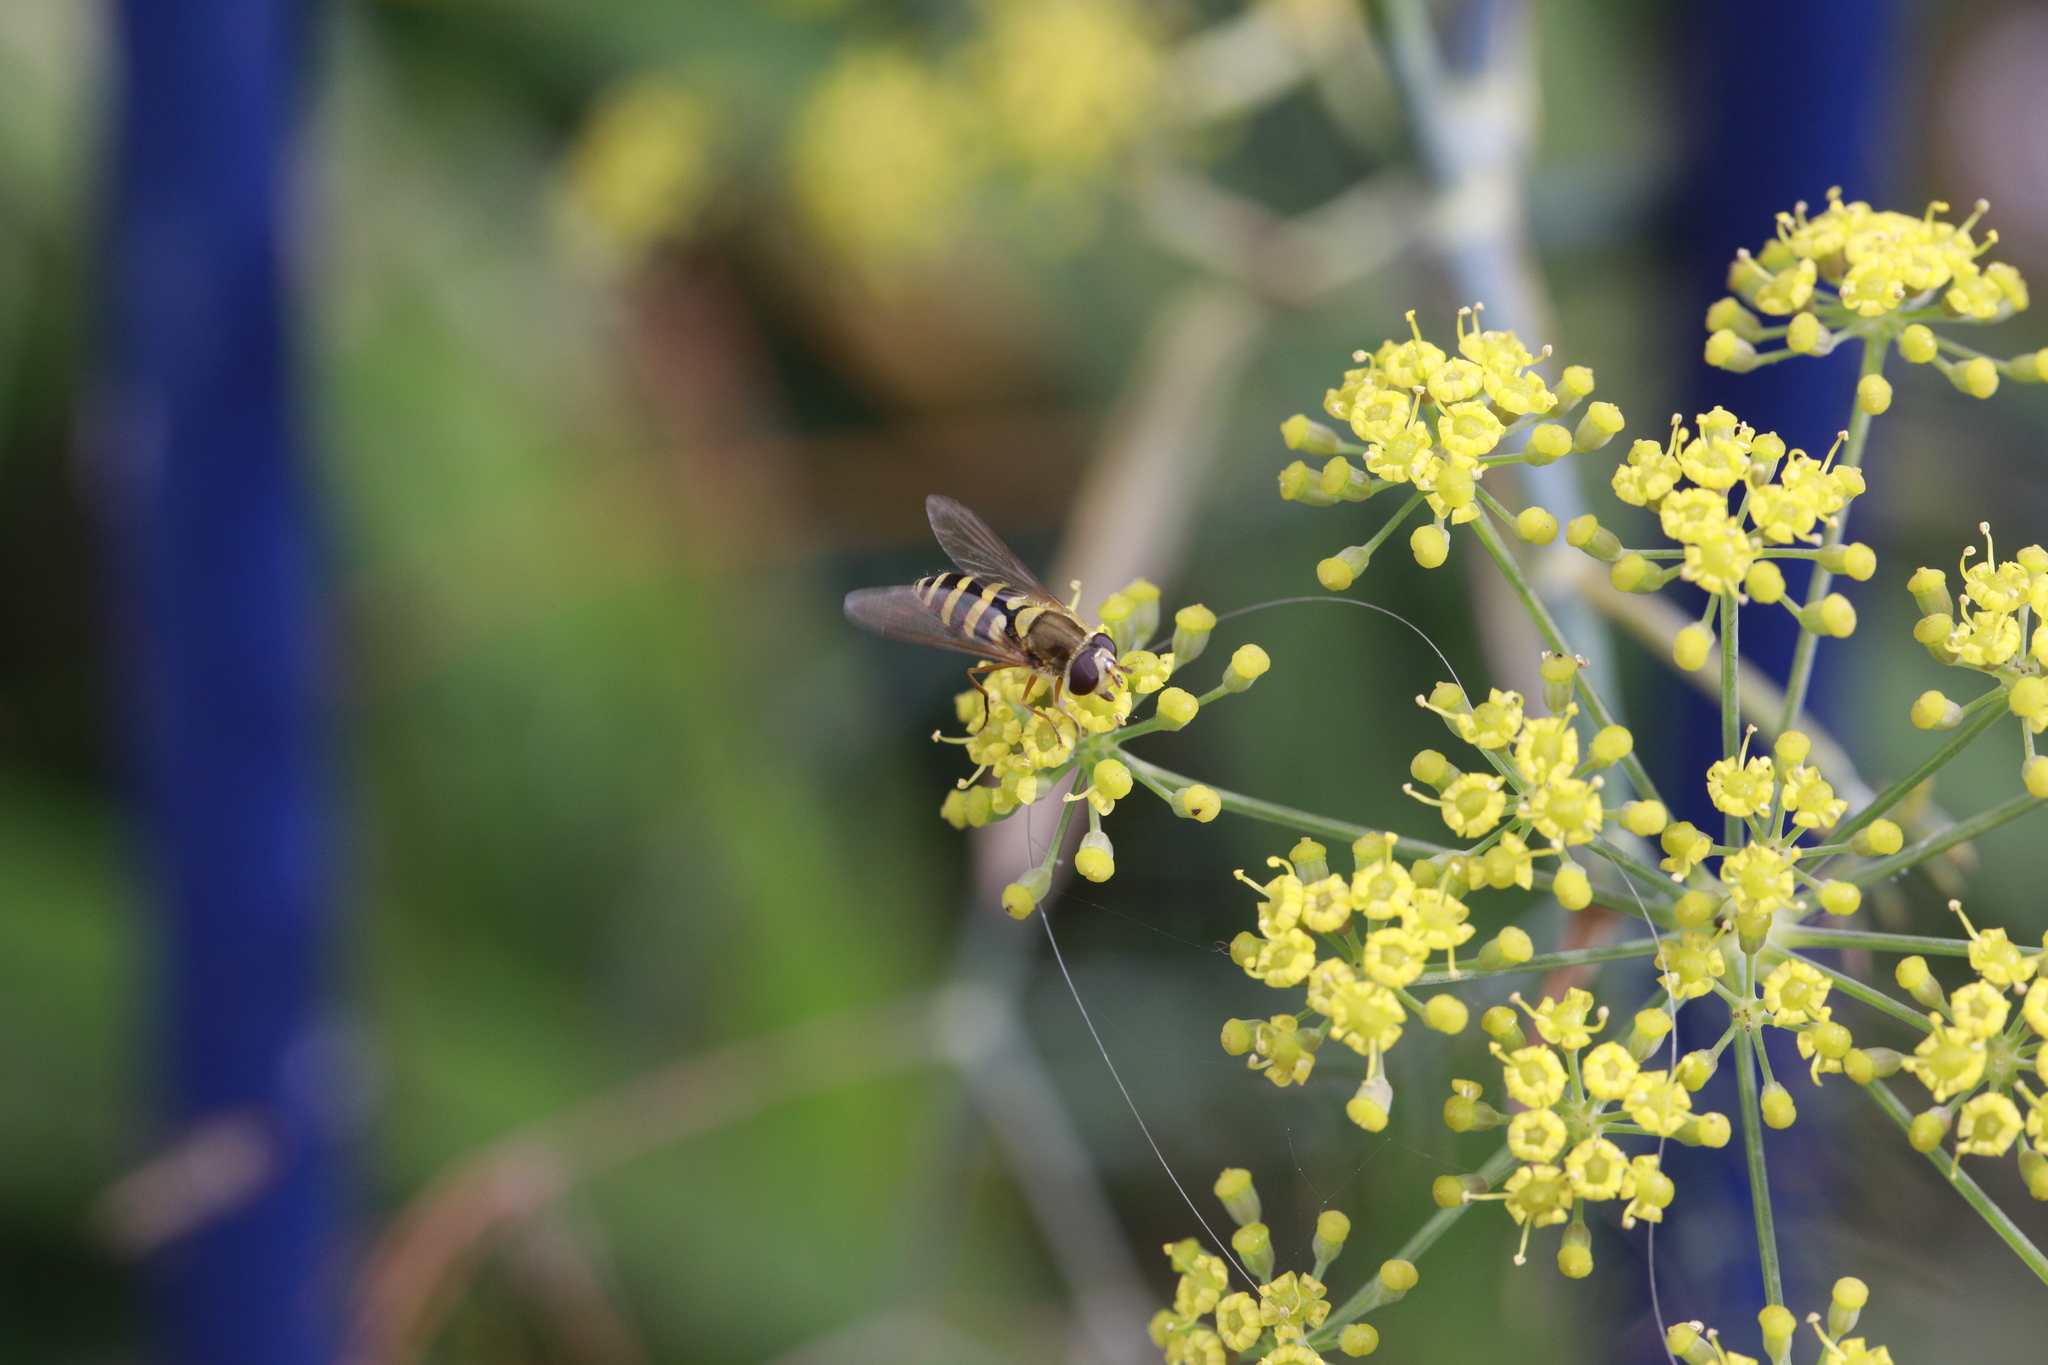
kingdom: Animalia
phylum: Arthropoda
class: Insecta
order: Diptera
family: Syrphidae
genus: Syrphus
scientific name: Syrphus ribesii
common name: Common flower fly
